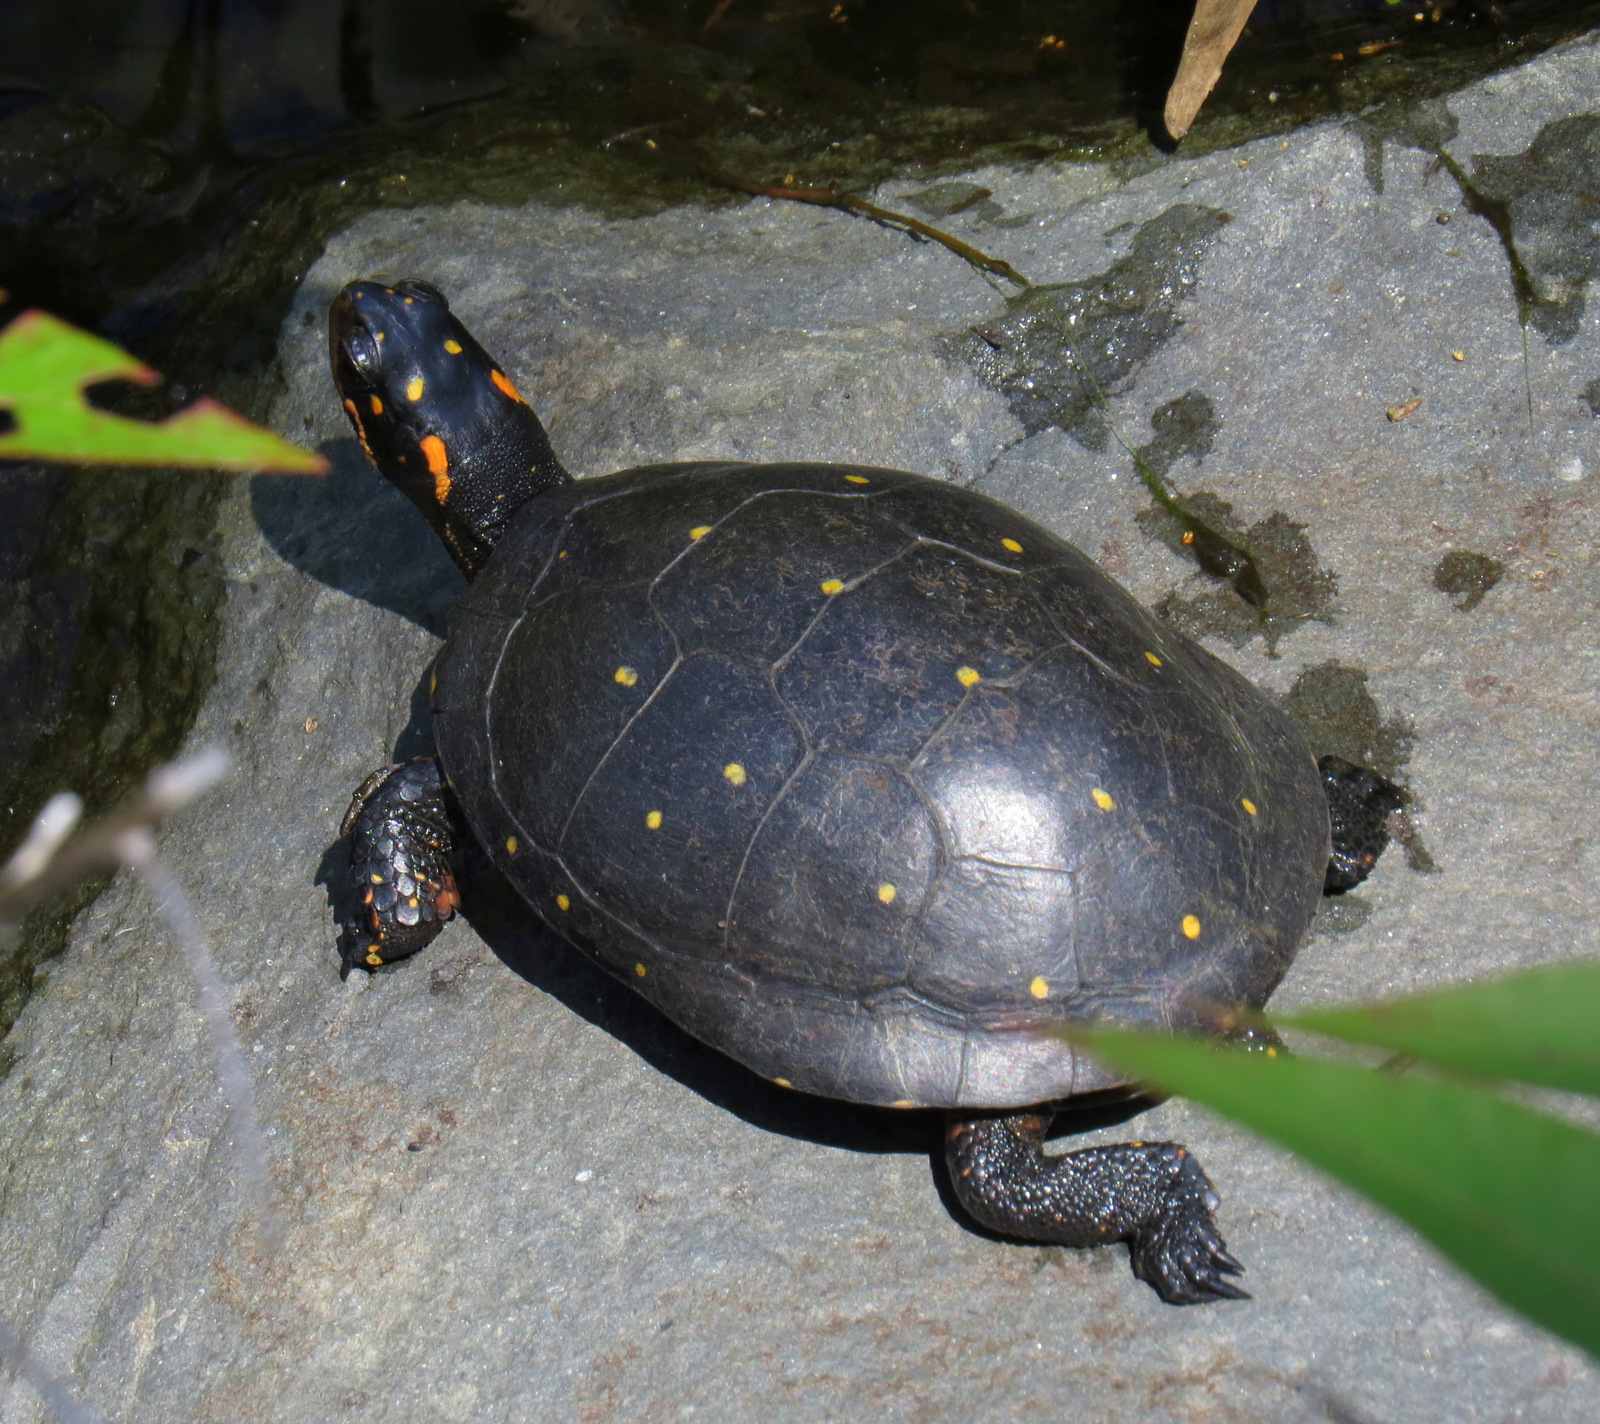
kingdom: Animalia
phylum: Chordata
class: Testudines
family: Emydidae
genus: Clemmys
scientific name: Clemmys guttata
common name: Spotted turtle
